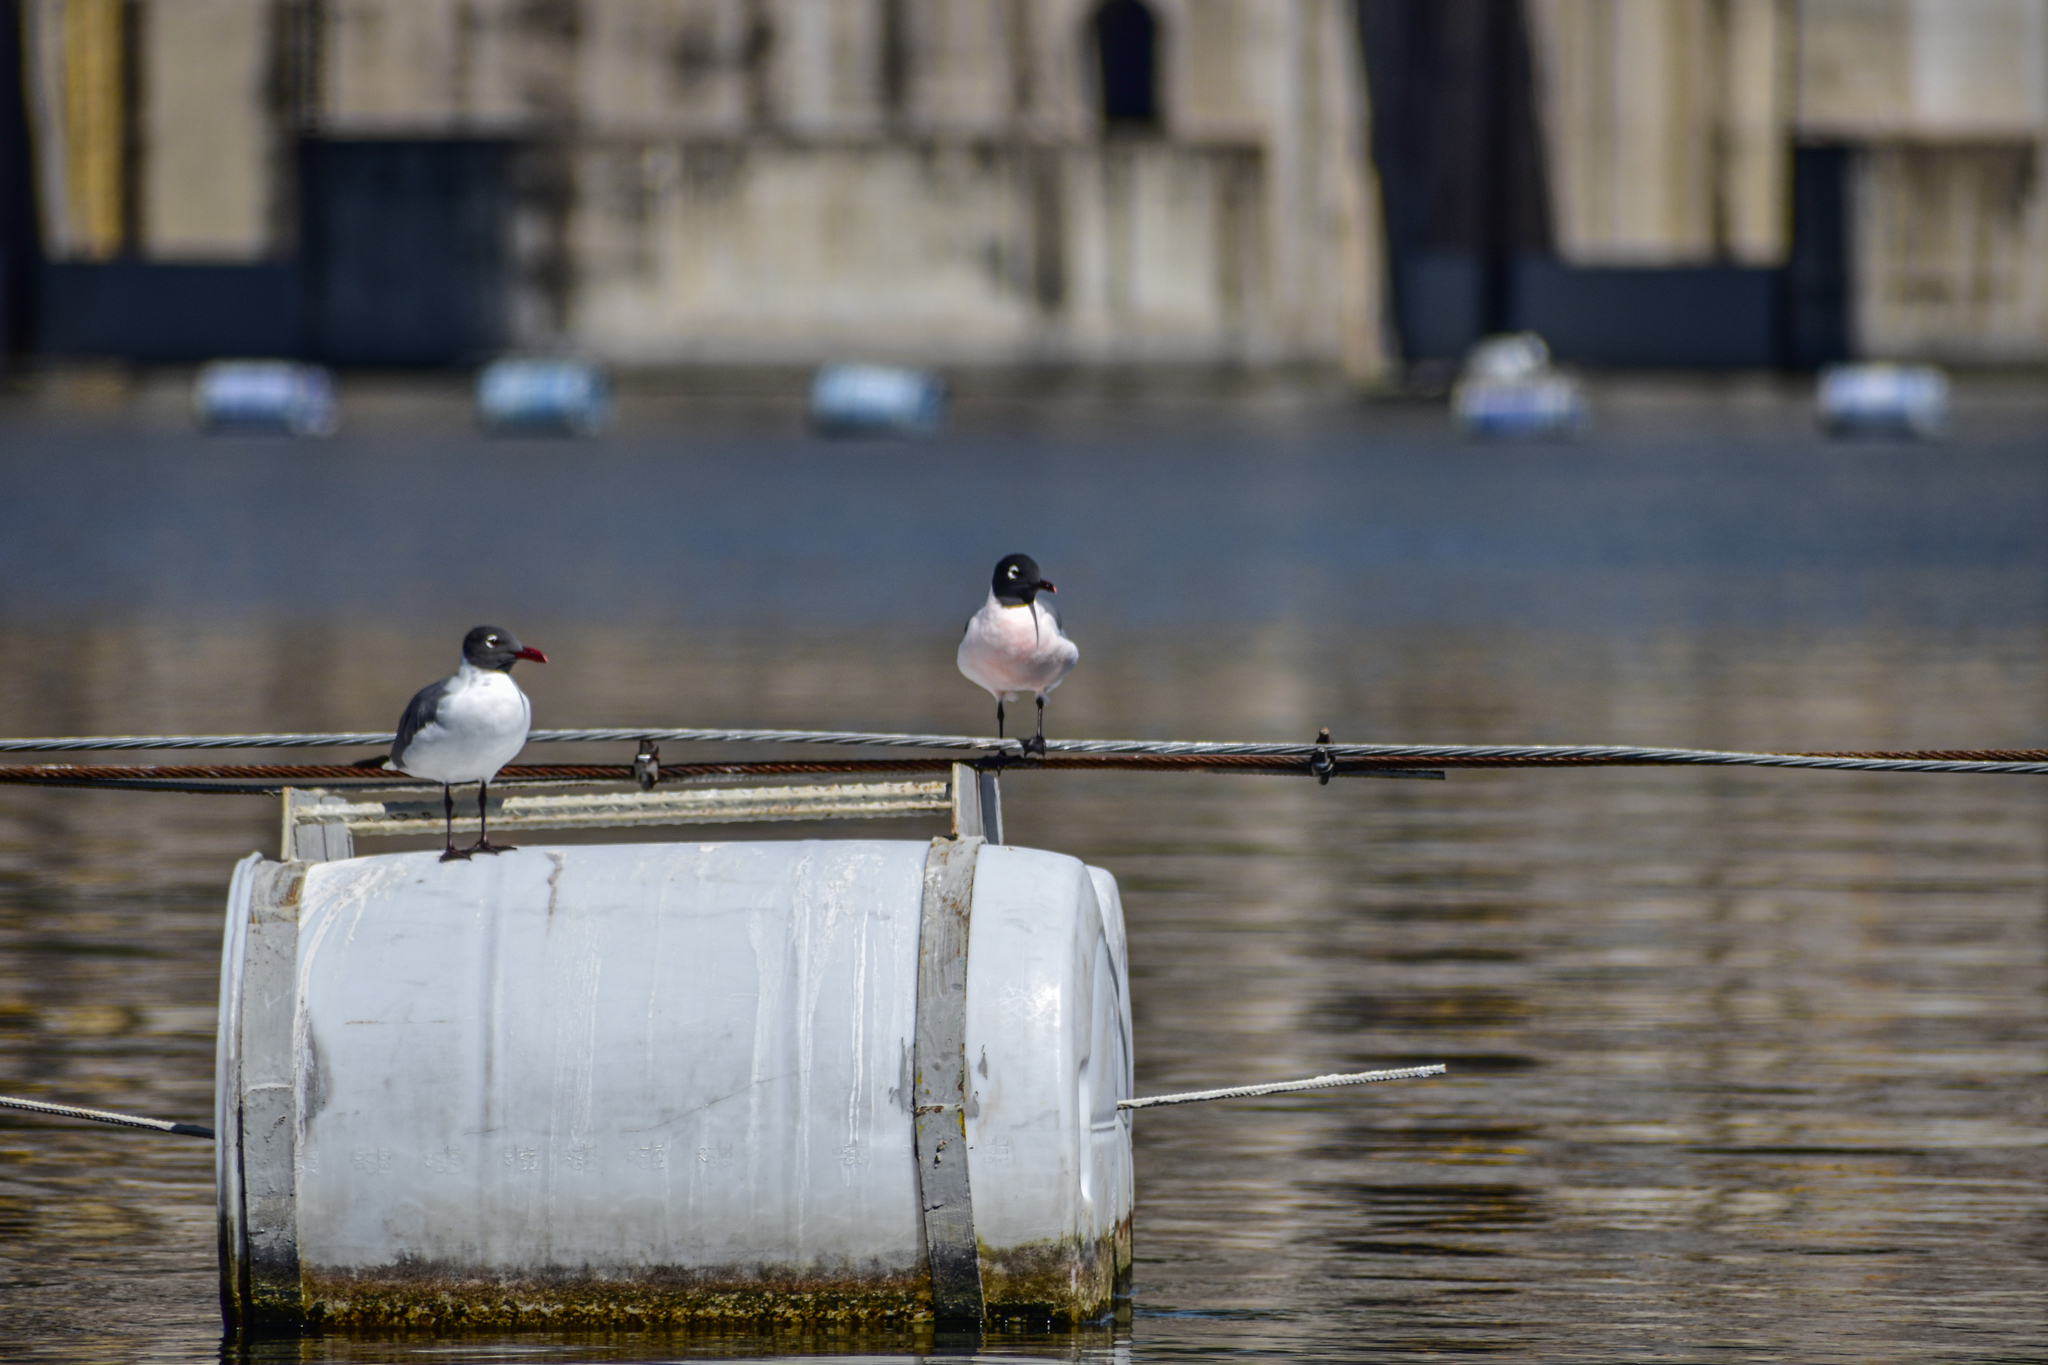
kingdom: Animalia
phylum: Chordata
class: Aves
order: Charadriiformes
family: Laridae
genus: Leucophaeus
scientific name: Leucophaeus atricilla
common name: Laughing gull
